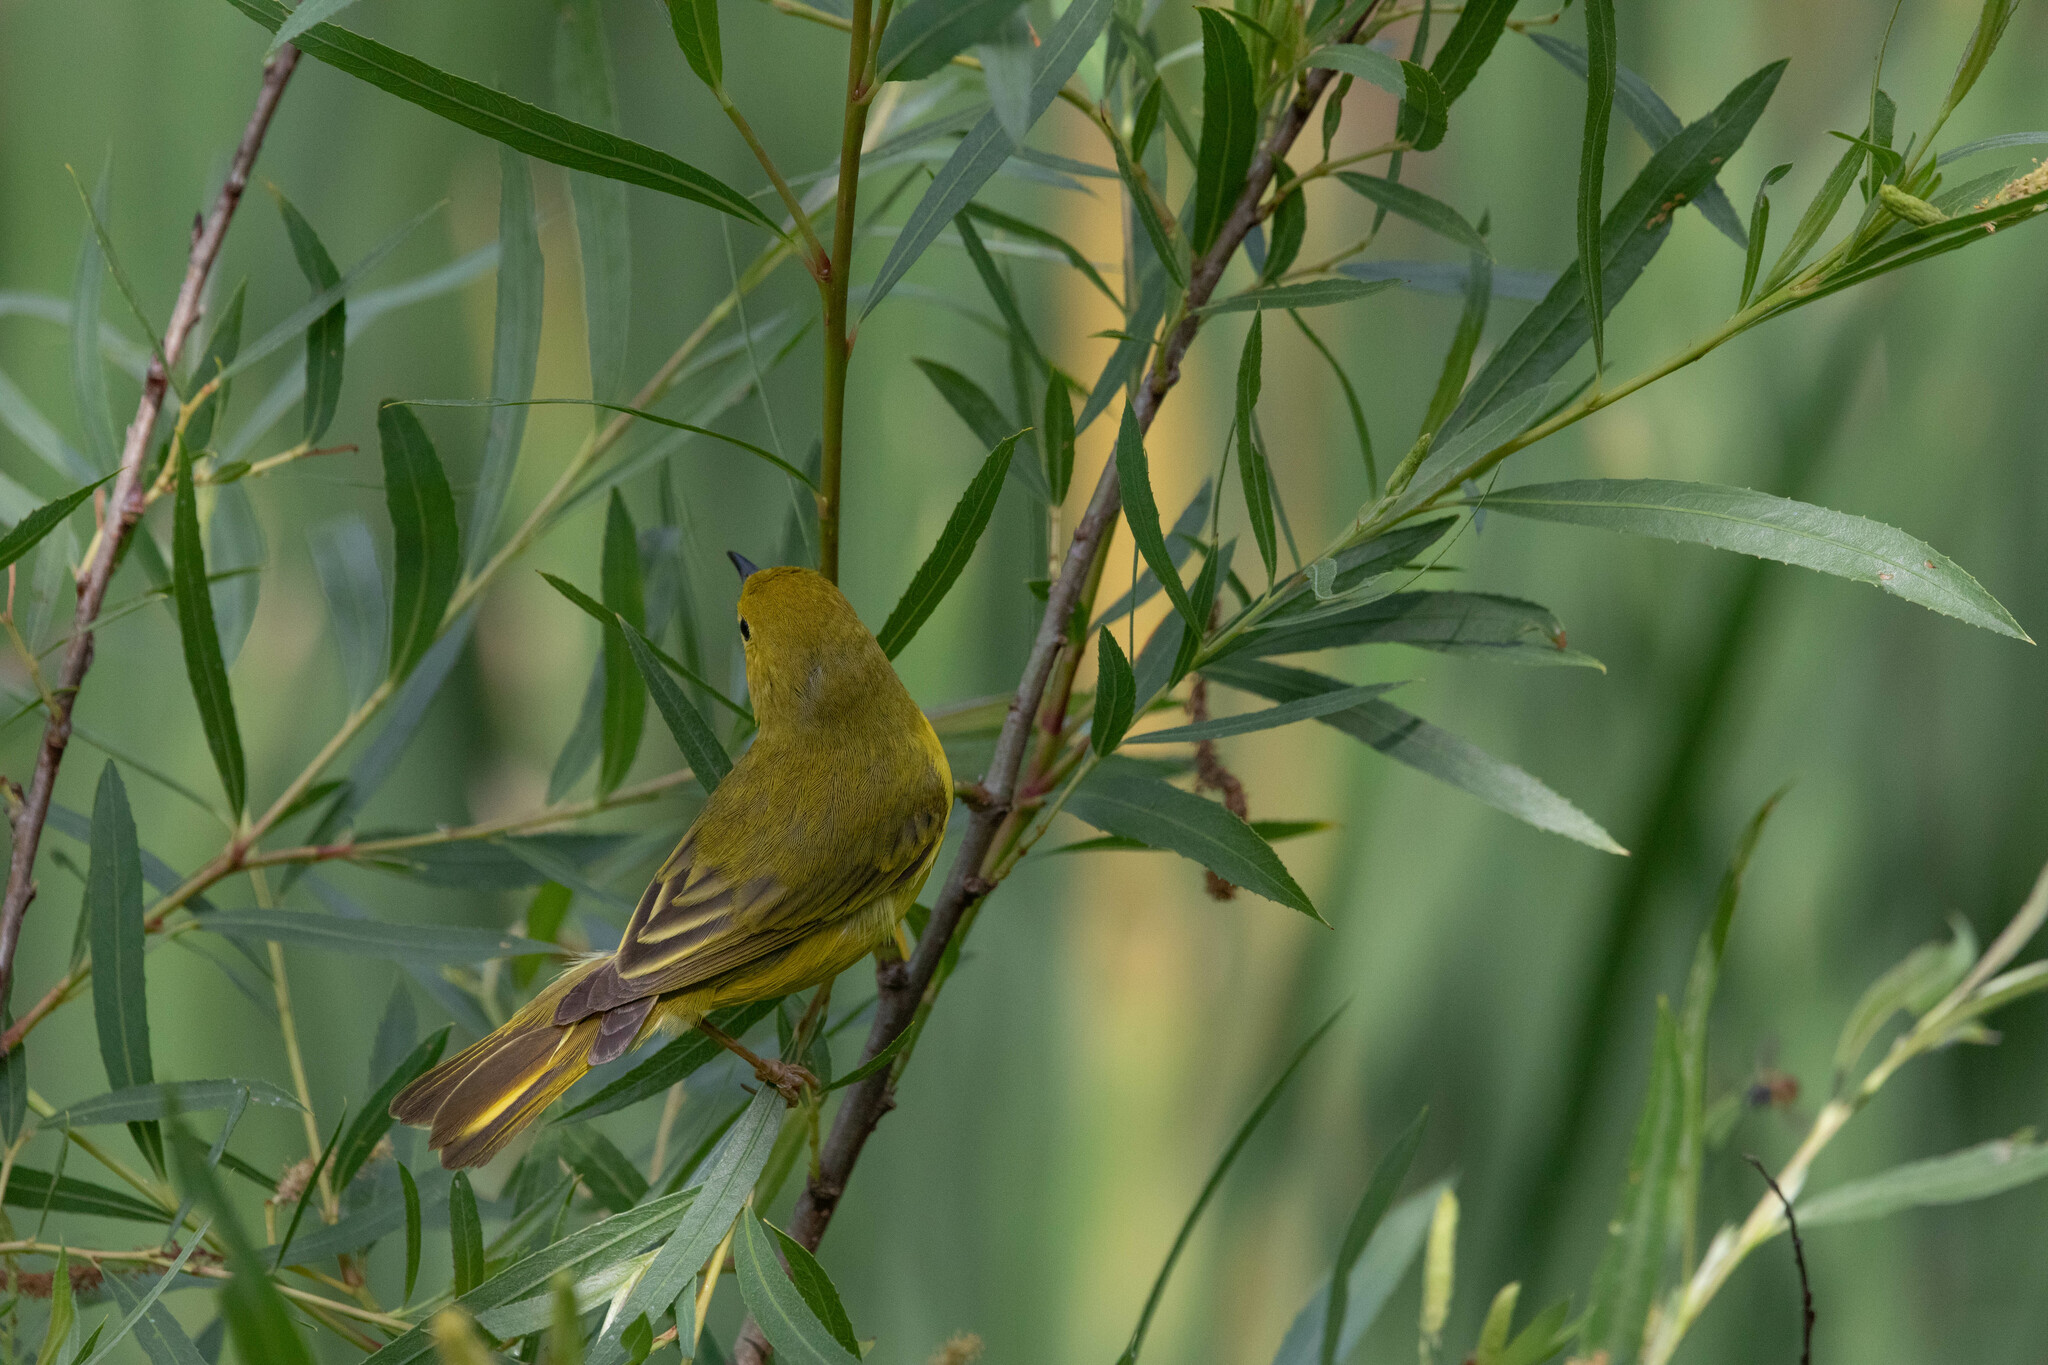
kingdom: Animalia
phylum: Chordata
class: Aves
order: Passeriformes
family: Parulidae
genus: Setophaga
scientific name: Setophaga petechia
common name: Yellow warbler
